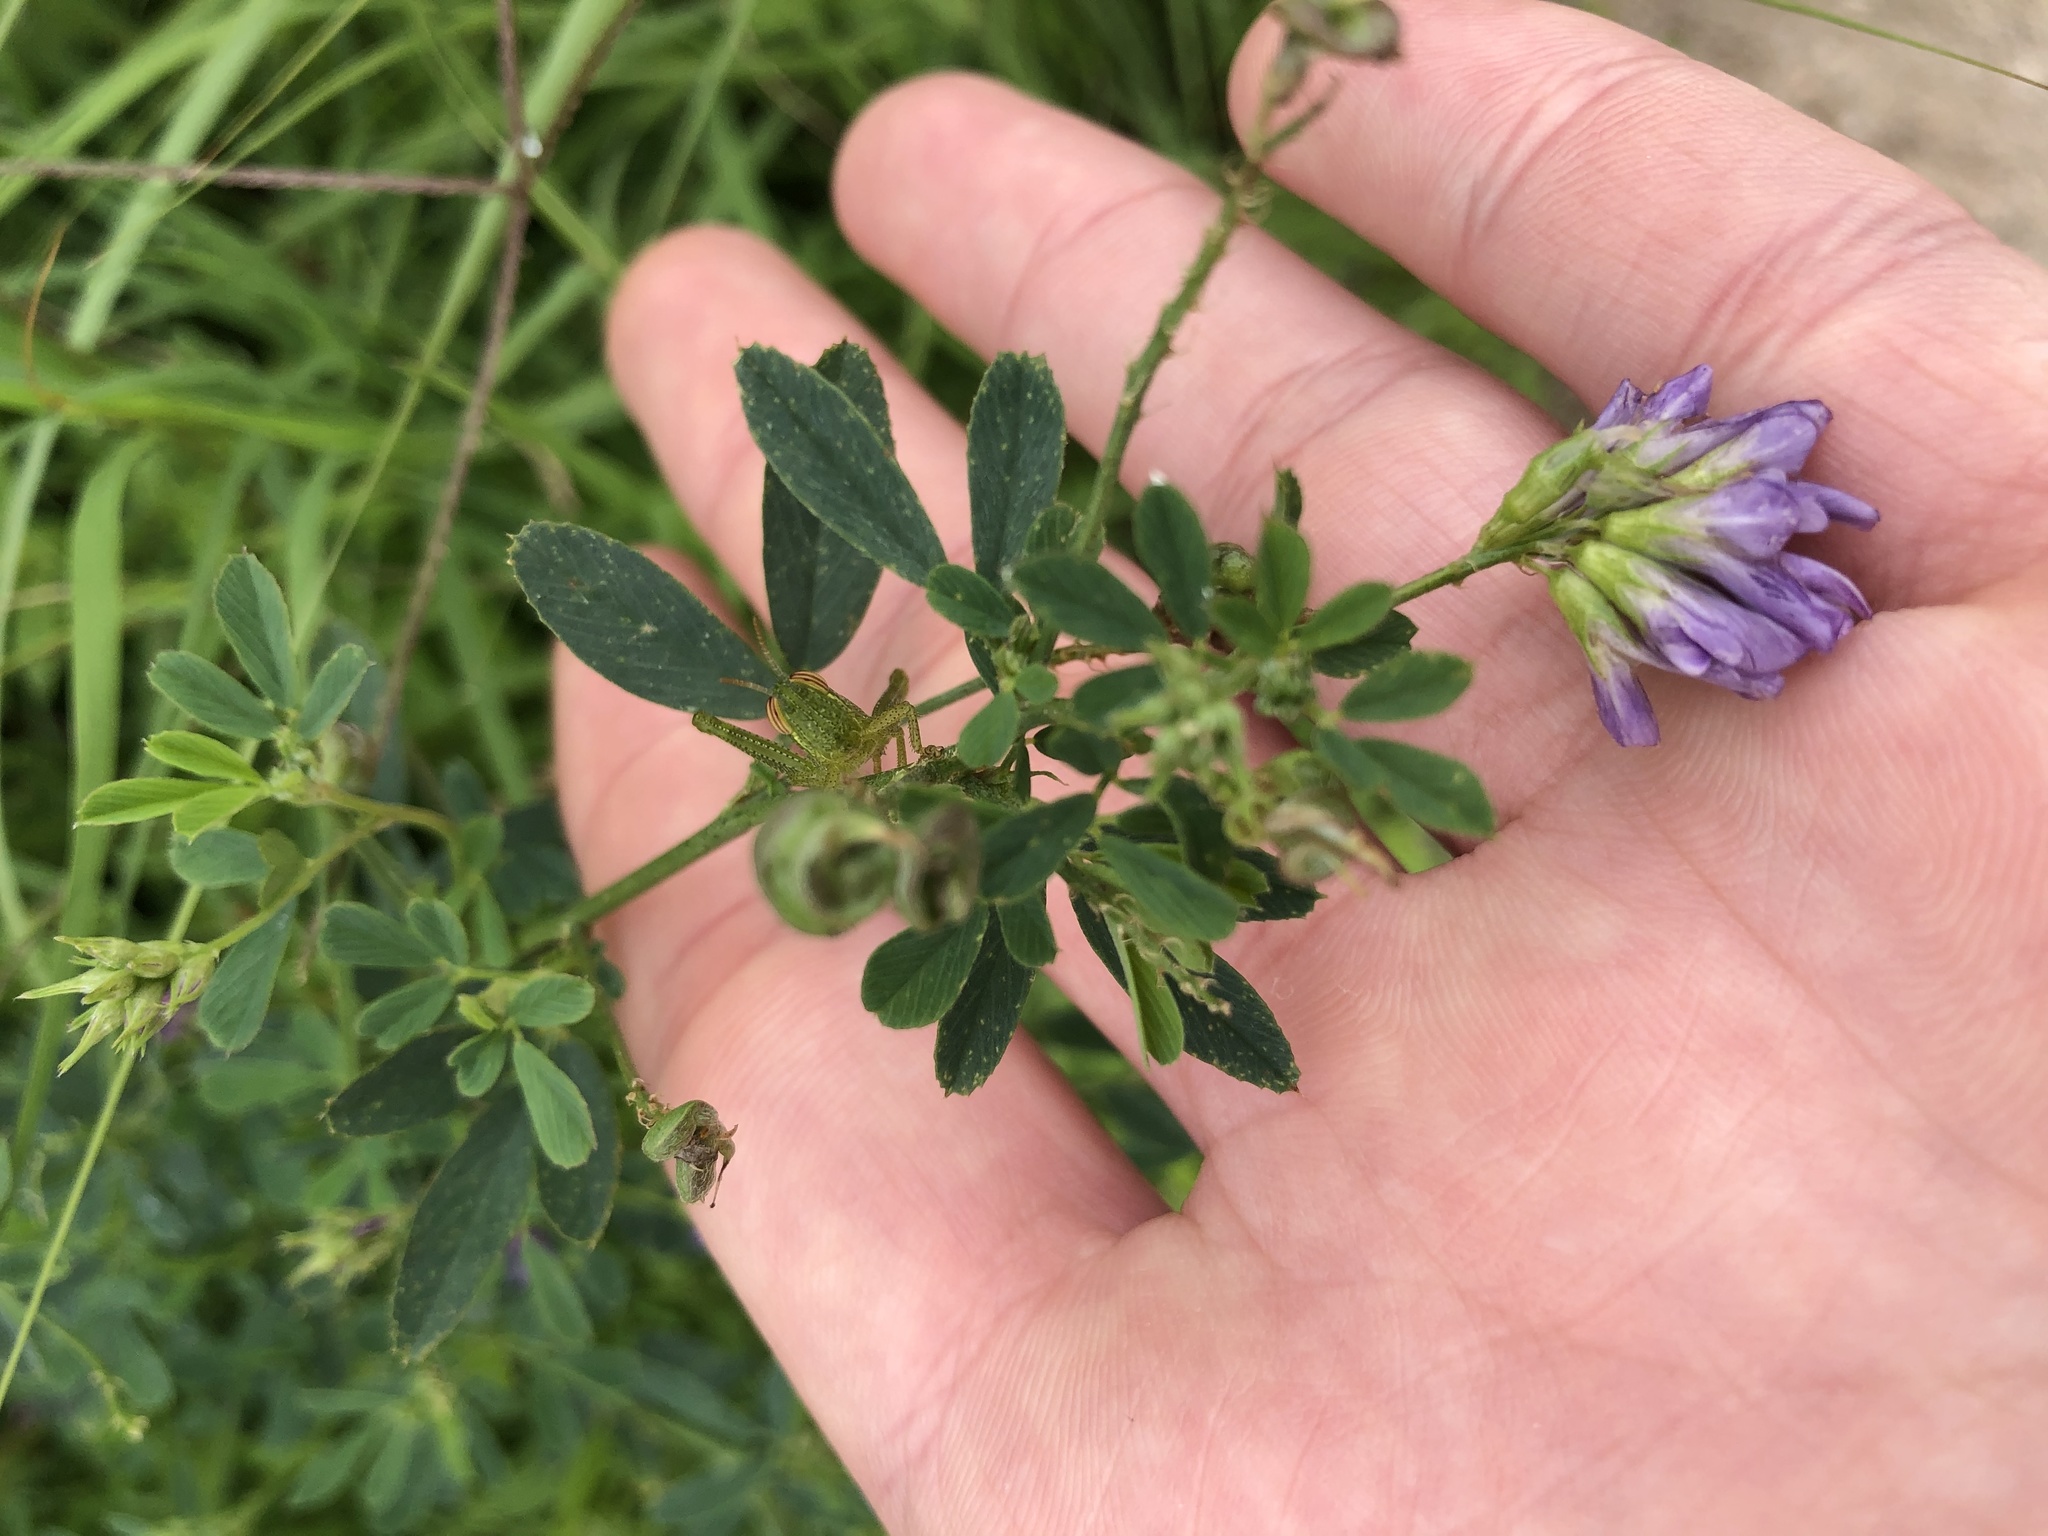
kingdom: Plantae
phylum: Tracheophyta
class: Magnoliopsida
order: Fabales
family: Fabaceae
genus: Medicago
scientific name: Medicago sativa
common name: Alfalfa
